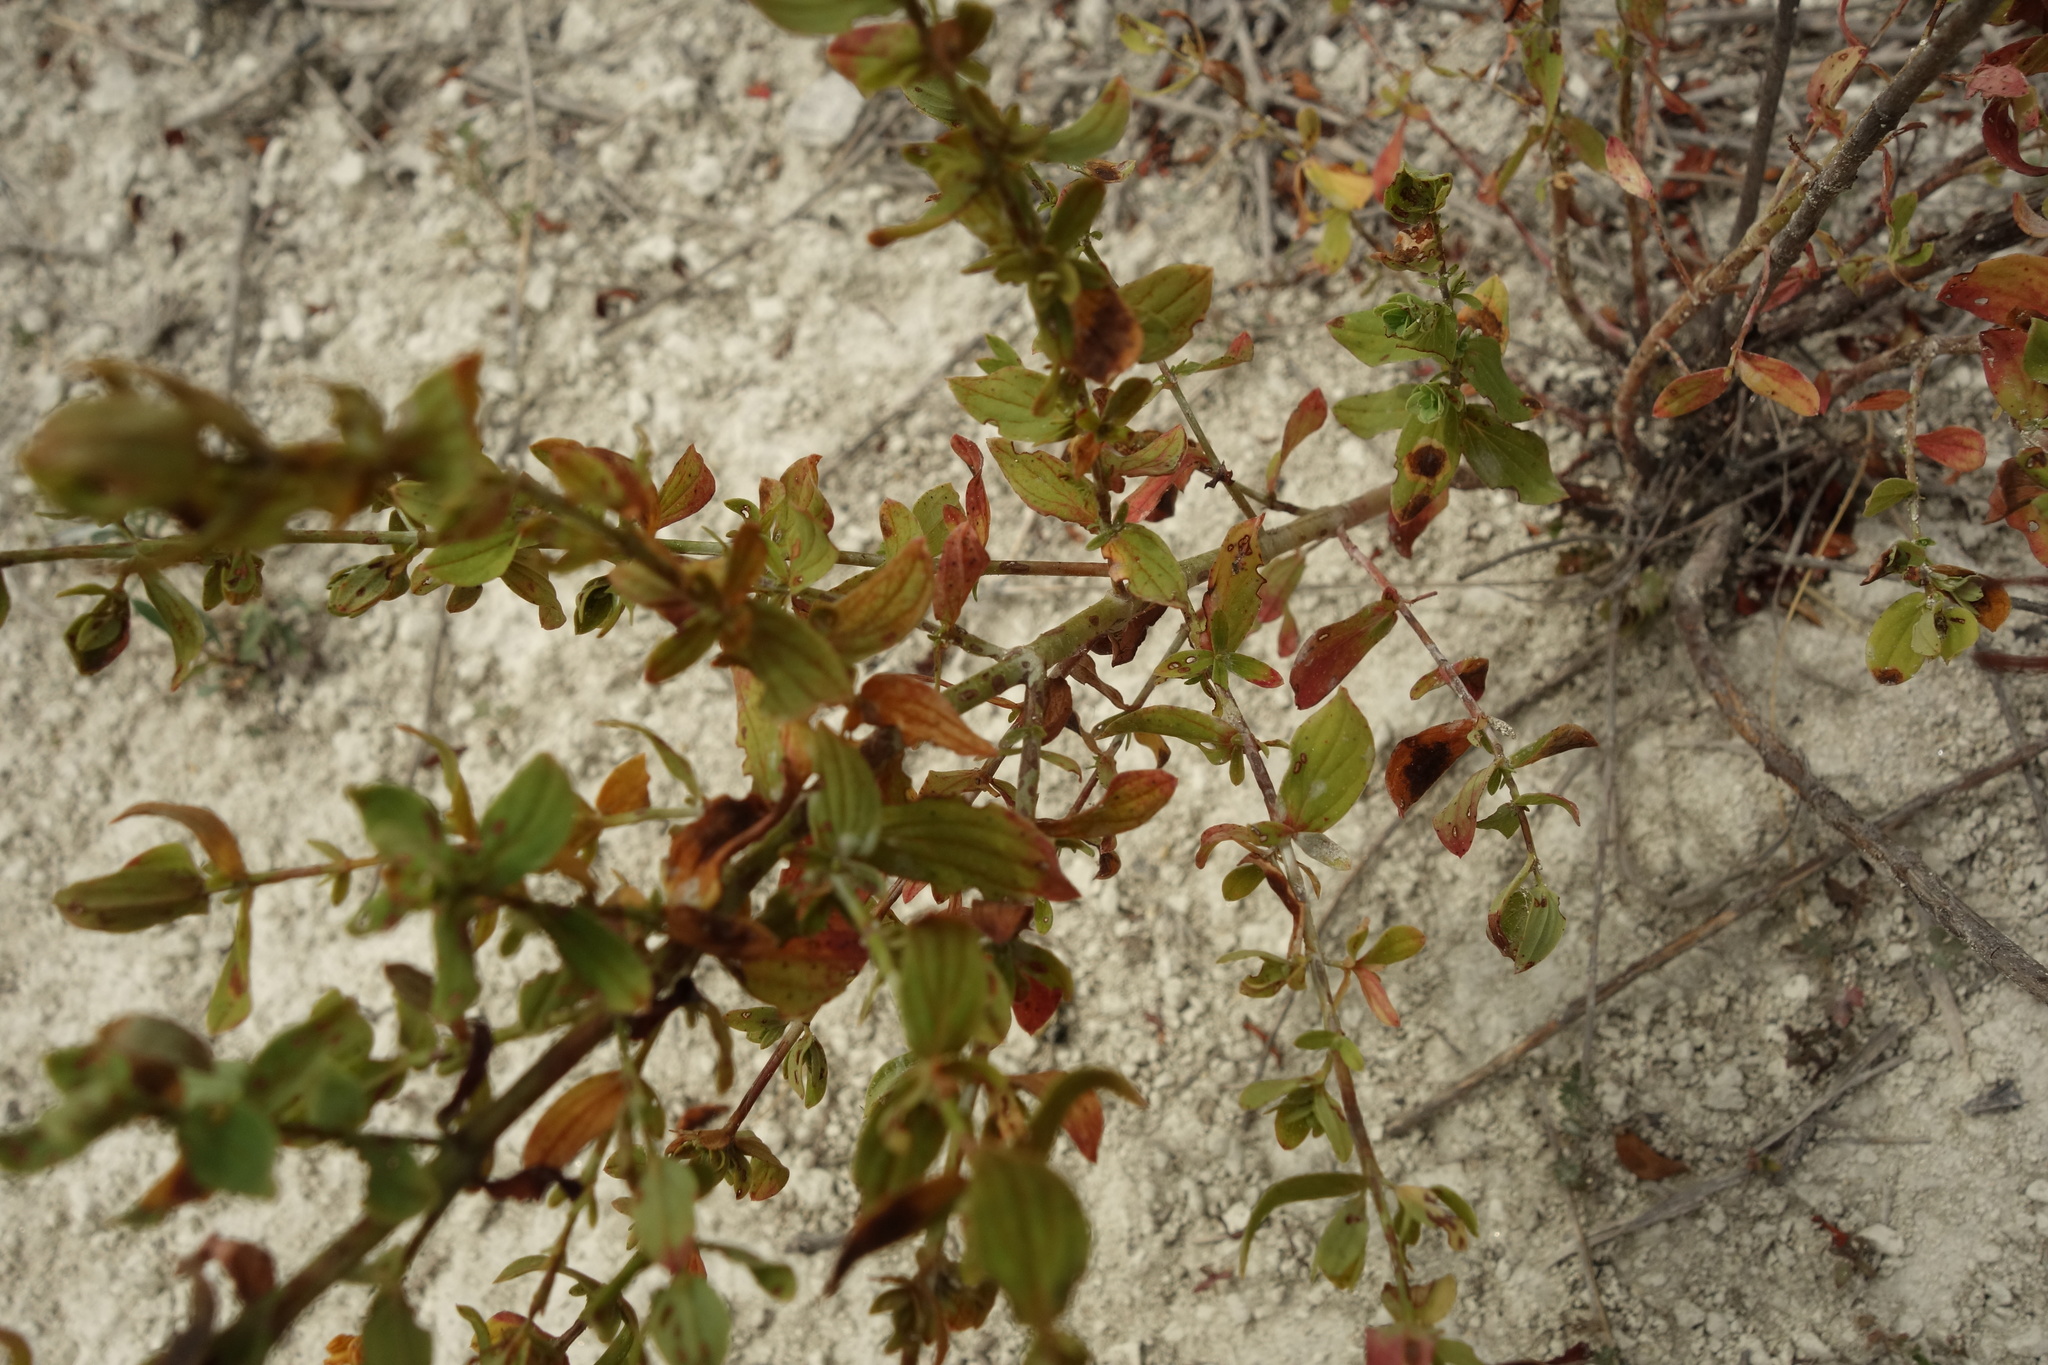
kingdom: Plantae
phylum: Tracheophyta
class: Magnoliopsida
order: Malpighiales
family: Hypericaceae
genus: Hypericum
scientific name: Hypericum perforatum
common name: Common st. johnswort
